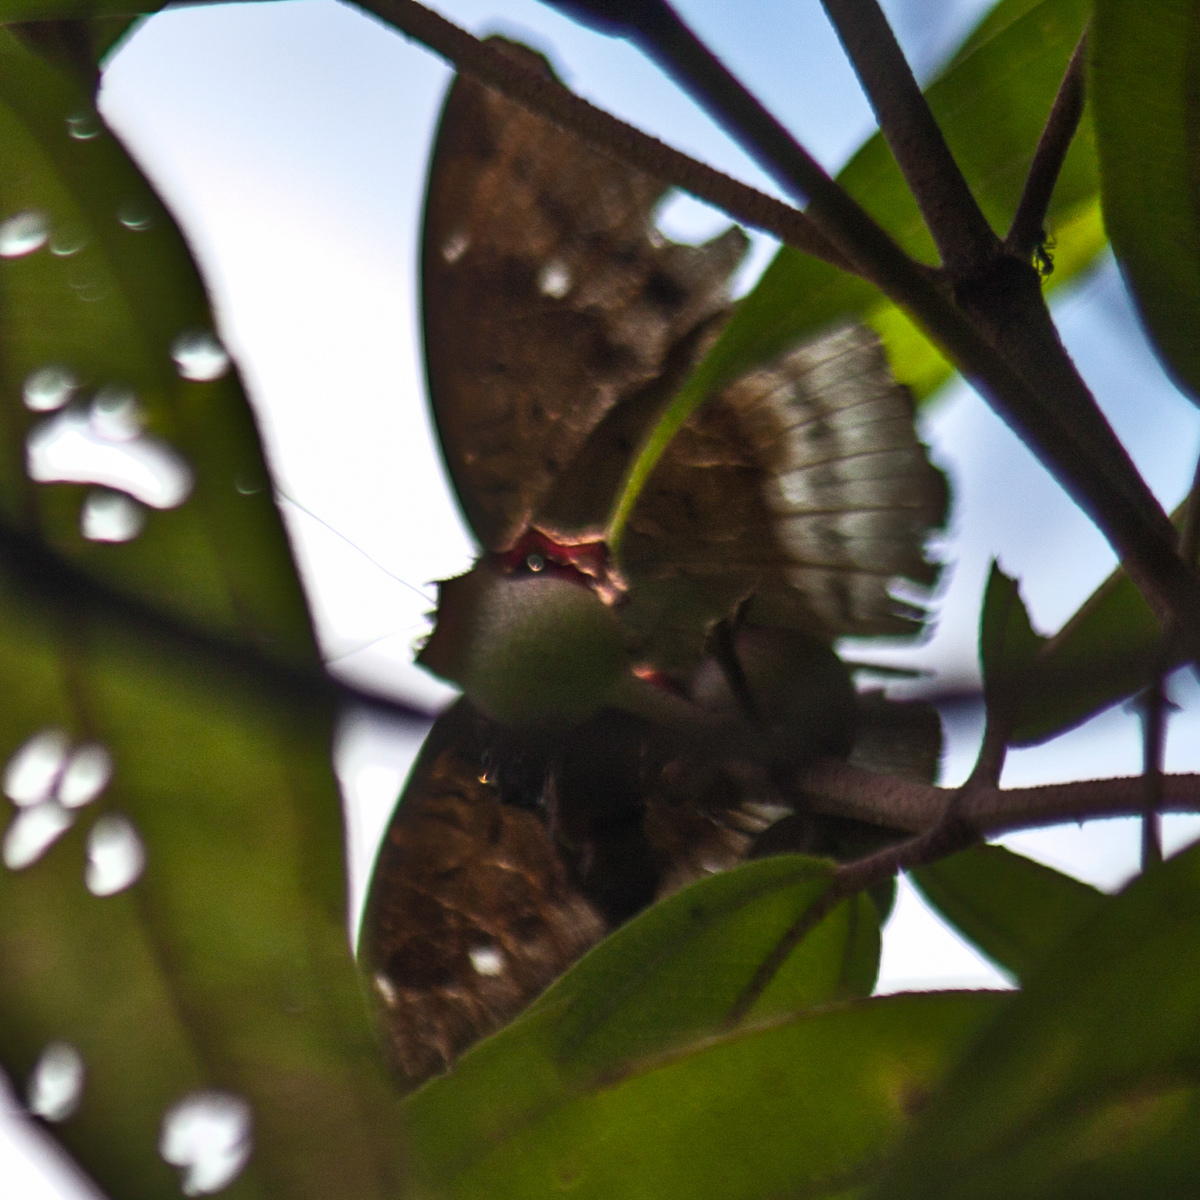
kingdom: Animalia
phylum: Arthropoda
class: Insecta
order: Lepidoptera
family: Nymphalidae
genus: Euthalia
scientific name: Euthalia monina
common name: Powdered baron
